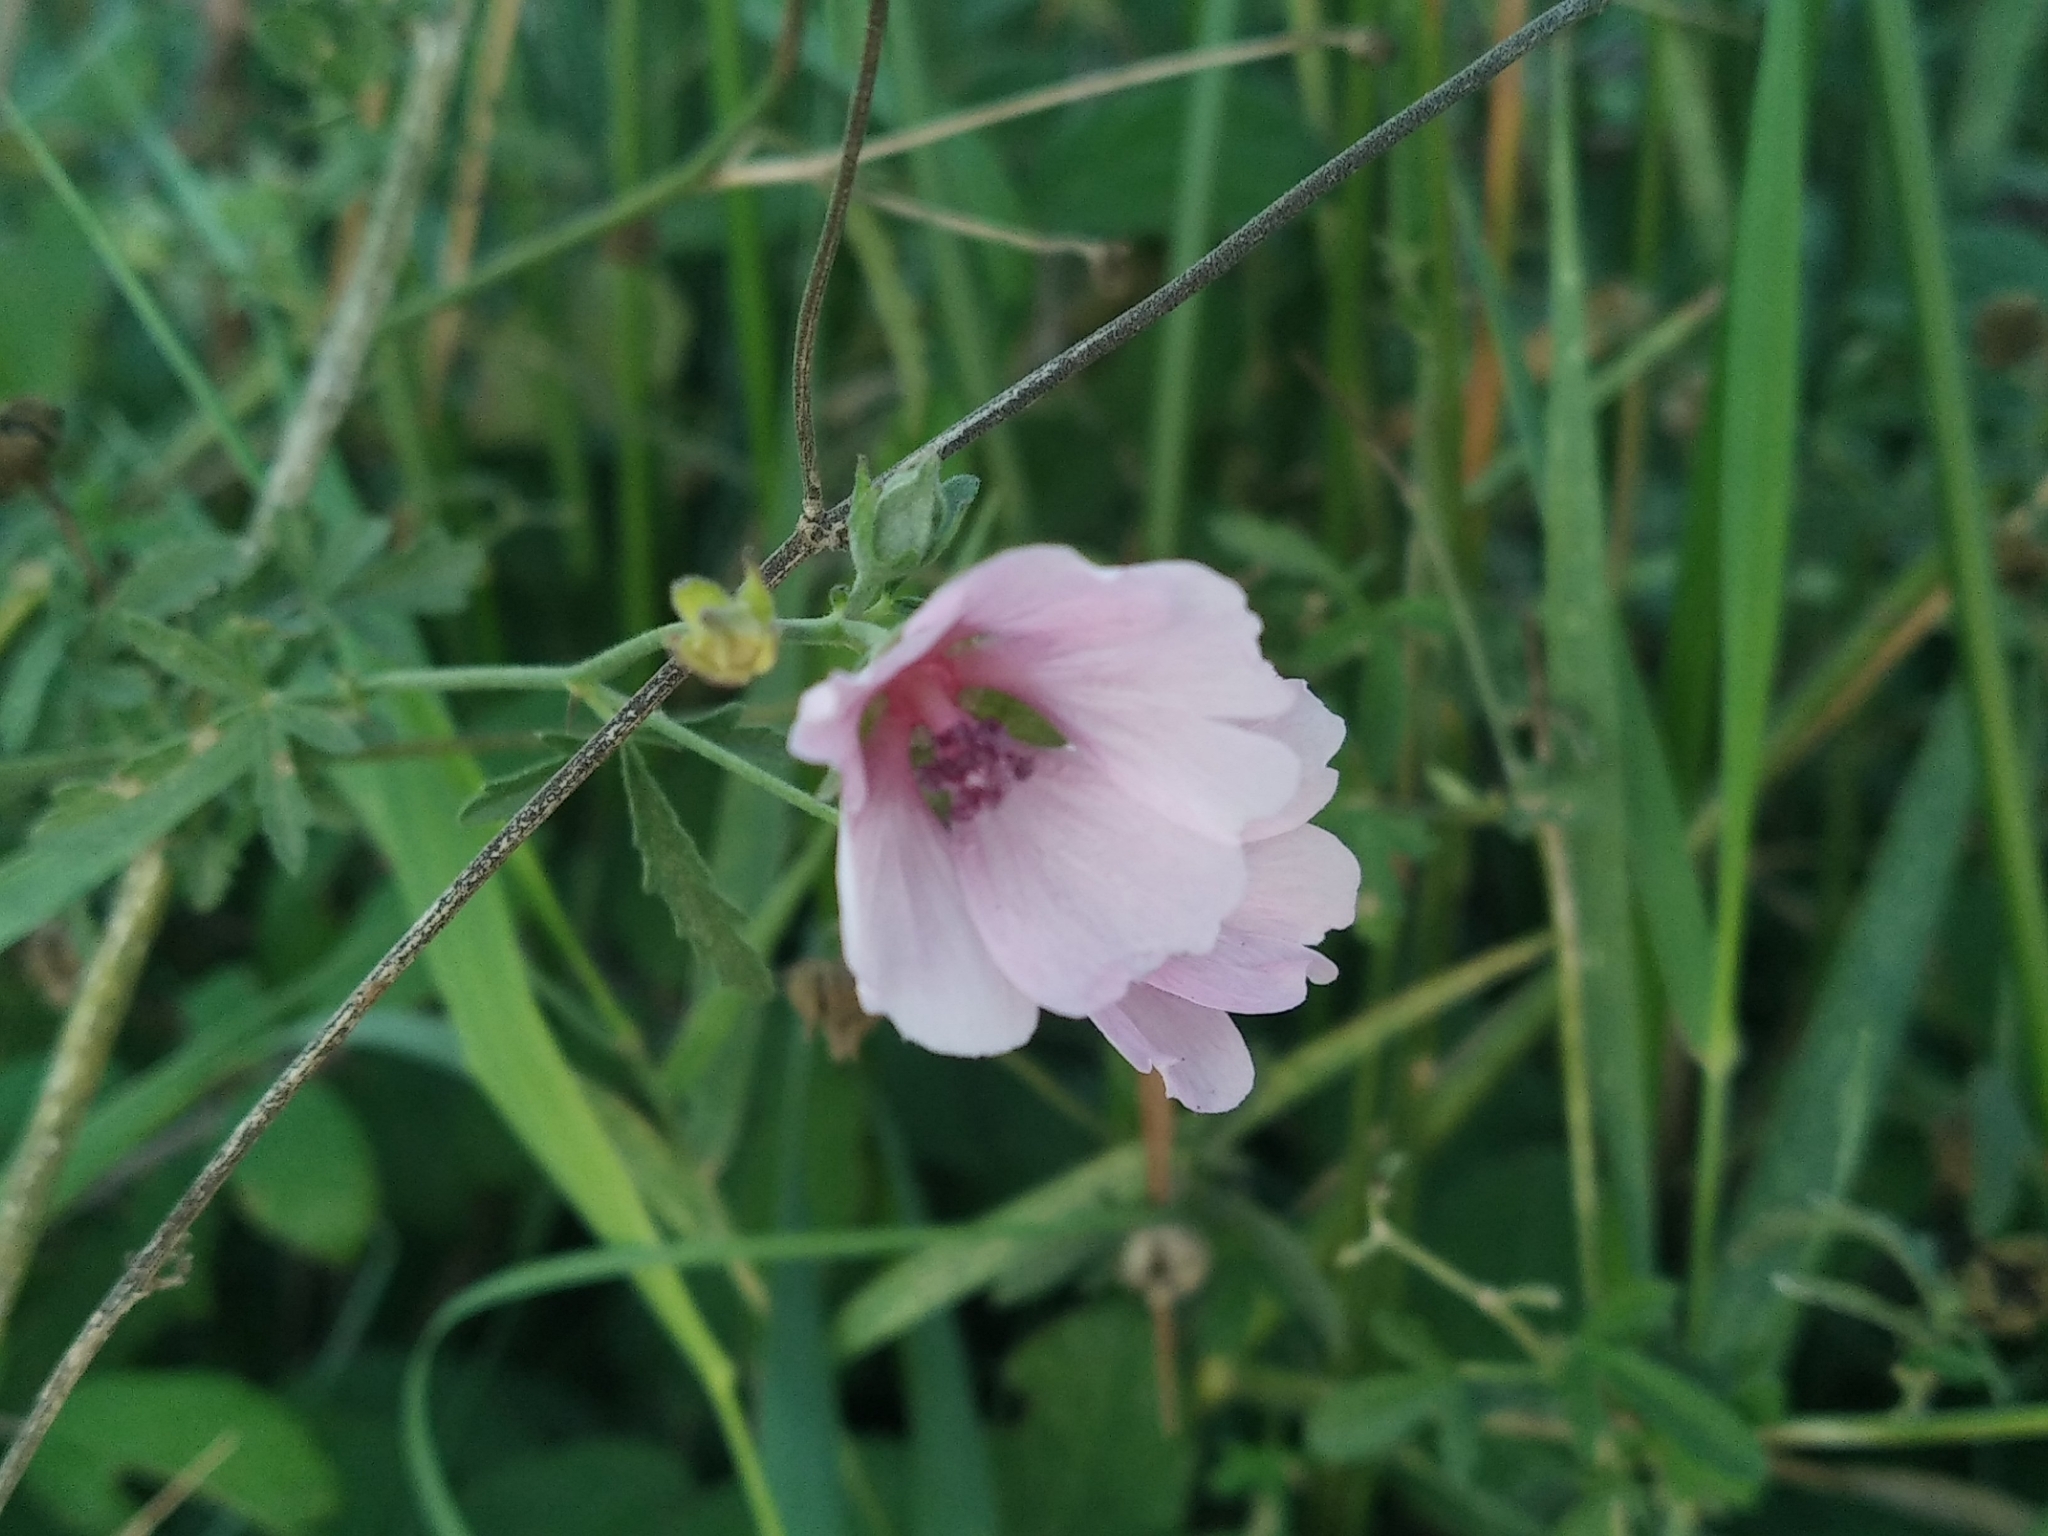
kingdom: Plantae
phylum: Tracheophyta
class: Magnoliopsida
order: Malvales
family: Malvaceae
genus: Althaea
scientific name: Althaea cannabina
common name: Palm-leaf marshmallow
